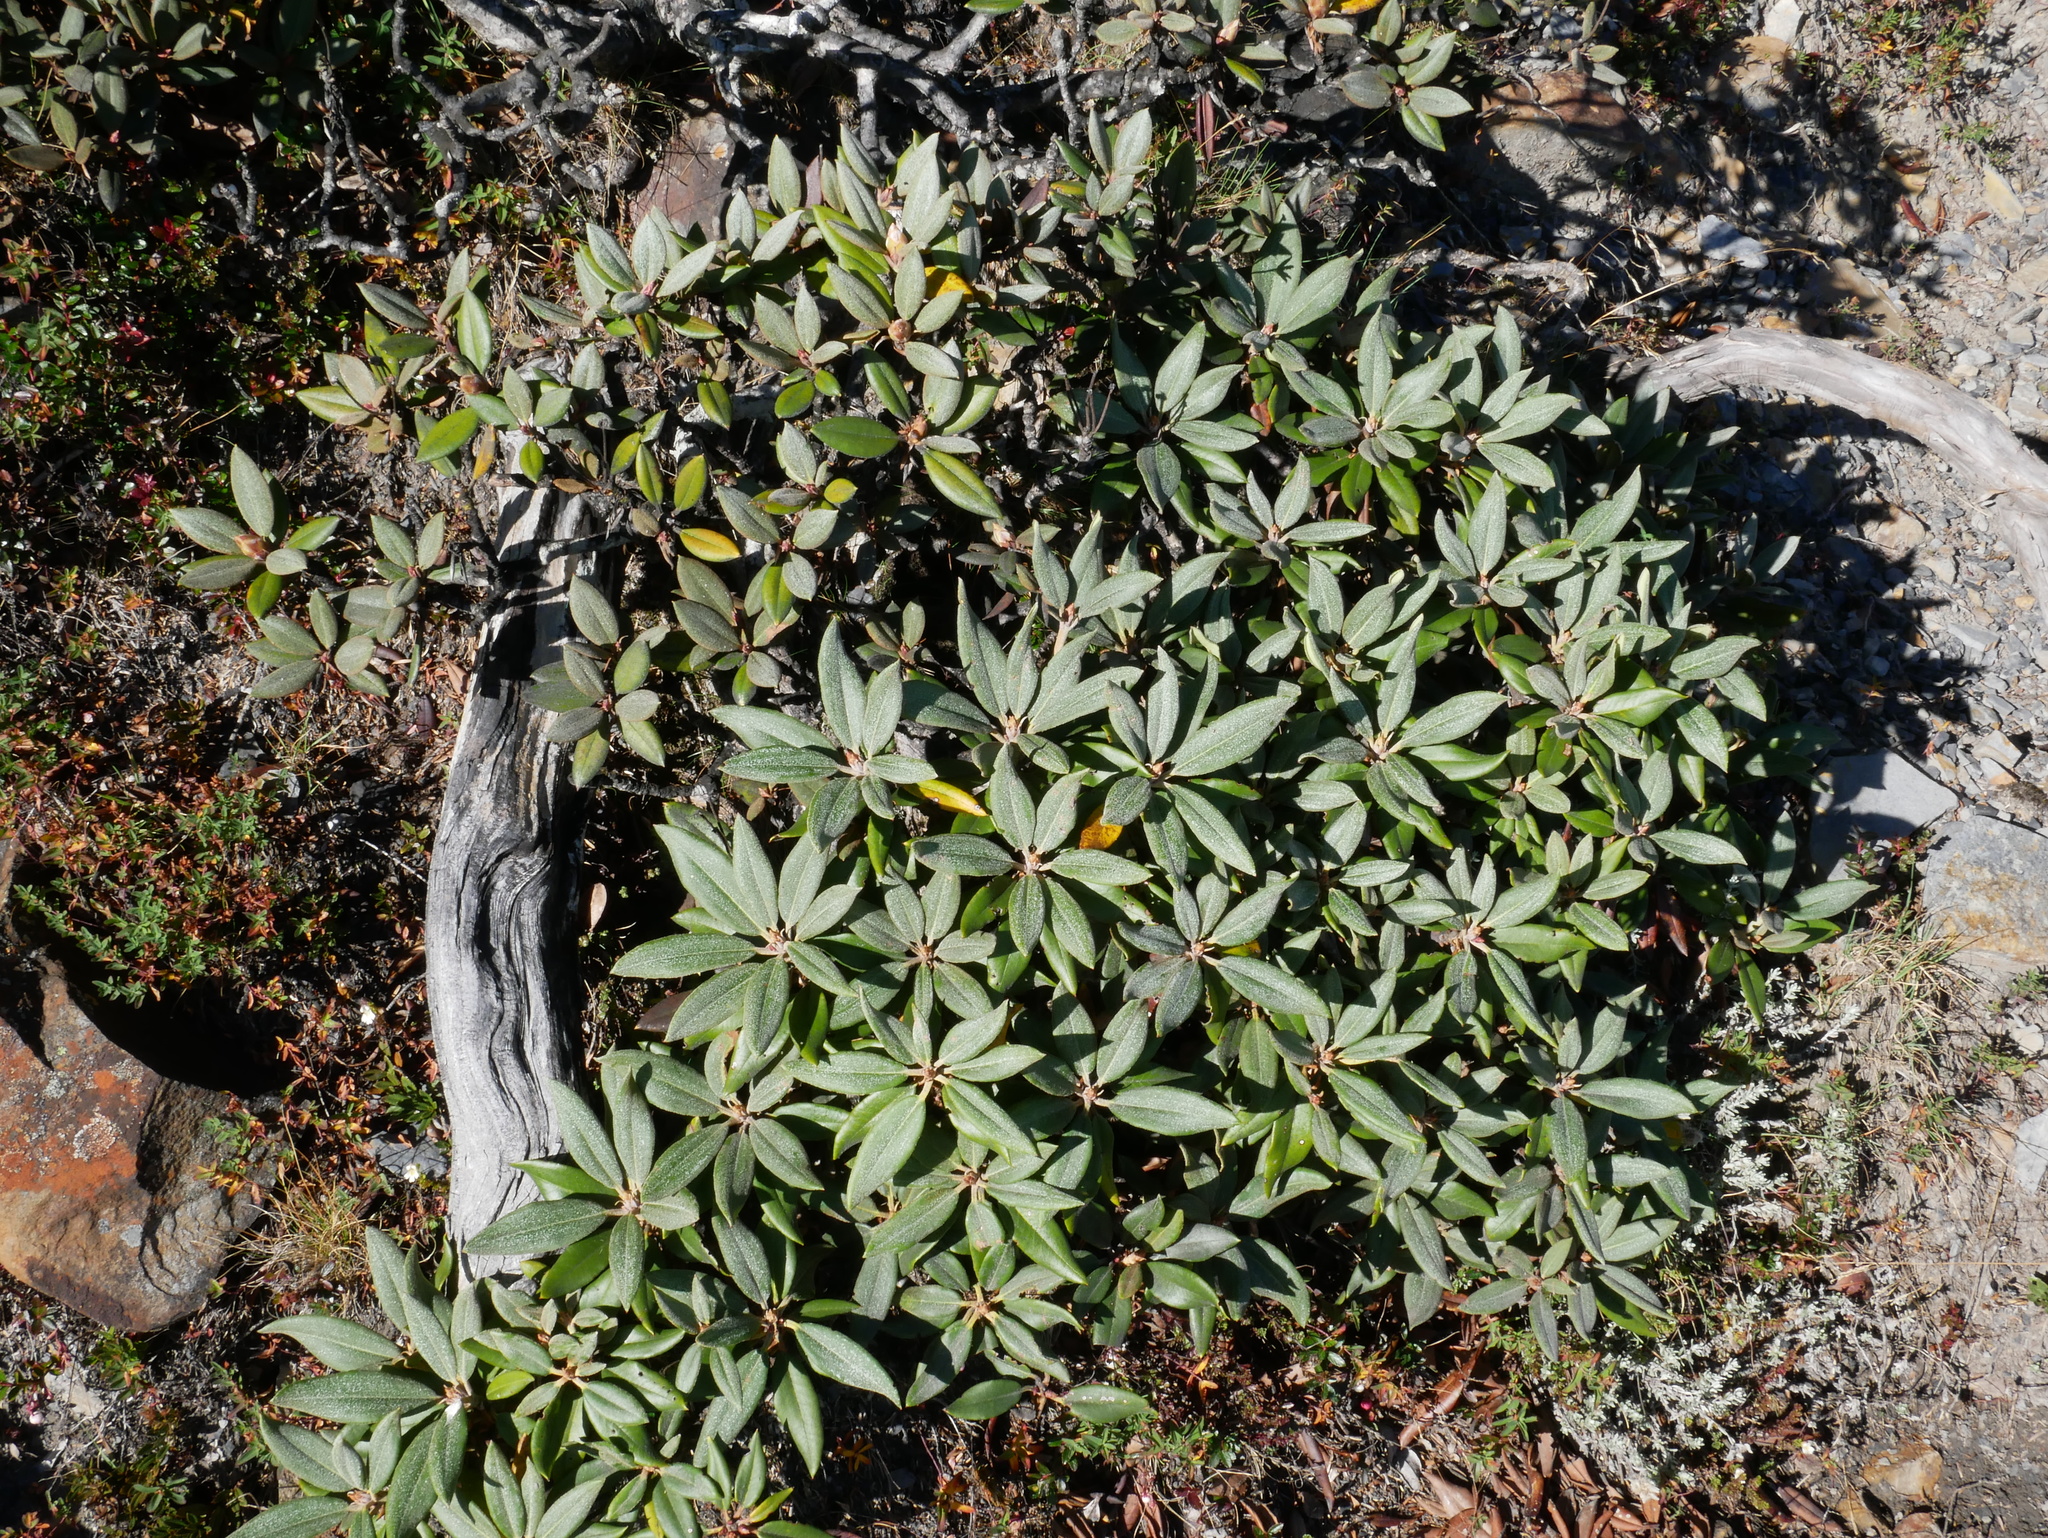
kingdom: Plantae
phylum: Tracheophyta
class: Magnoliopsida
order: Ericales
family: Ericaceae
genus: Rhododendron
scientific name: Rhododendron pseudochrysanthum
